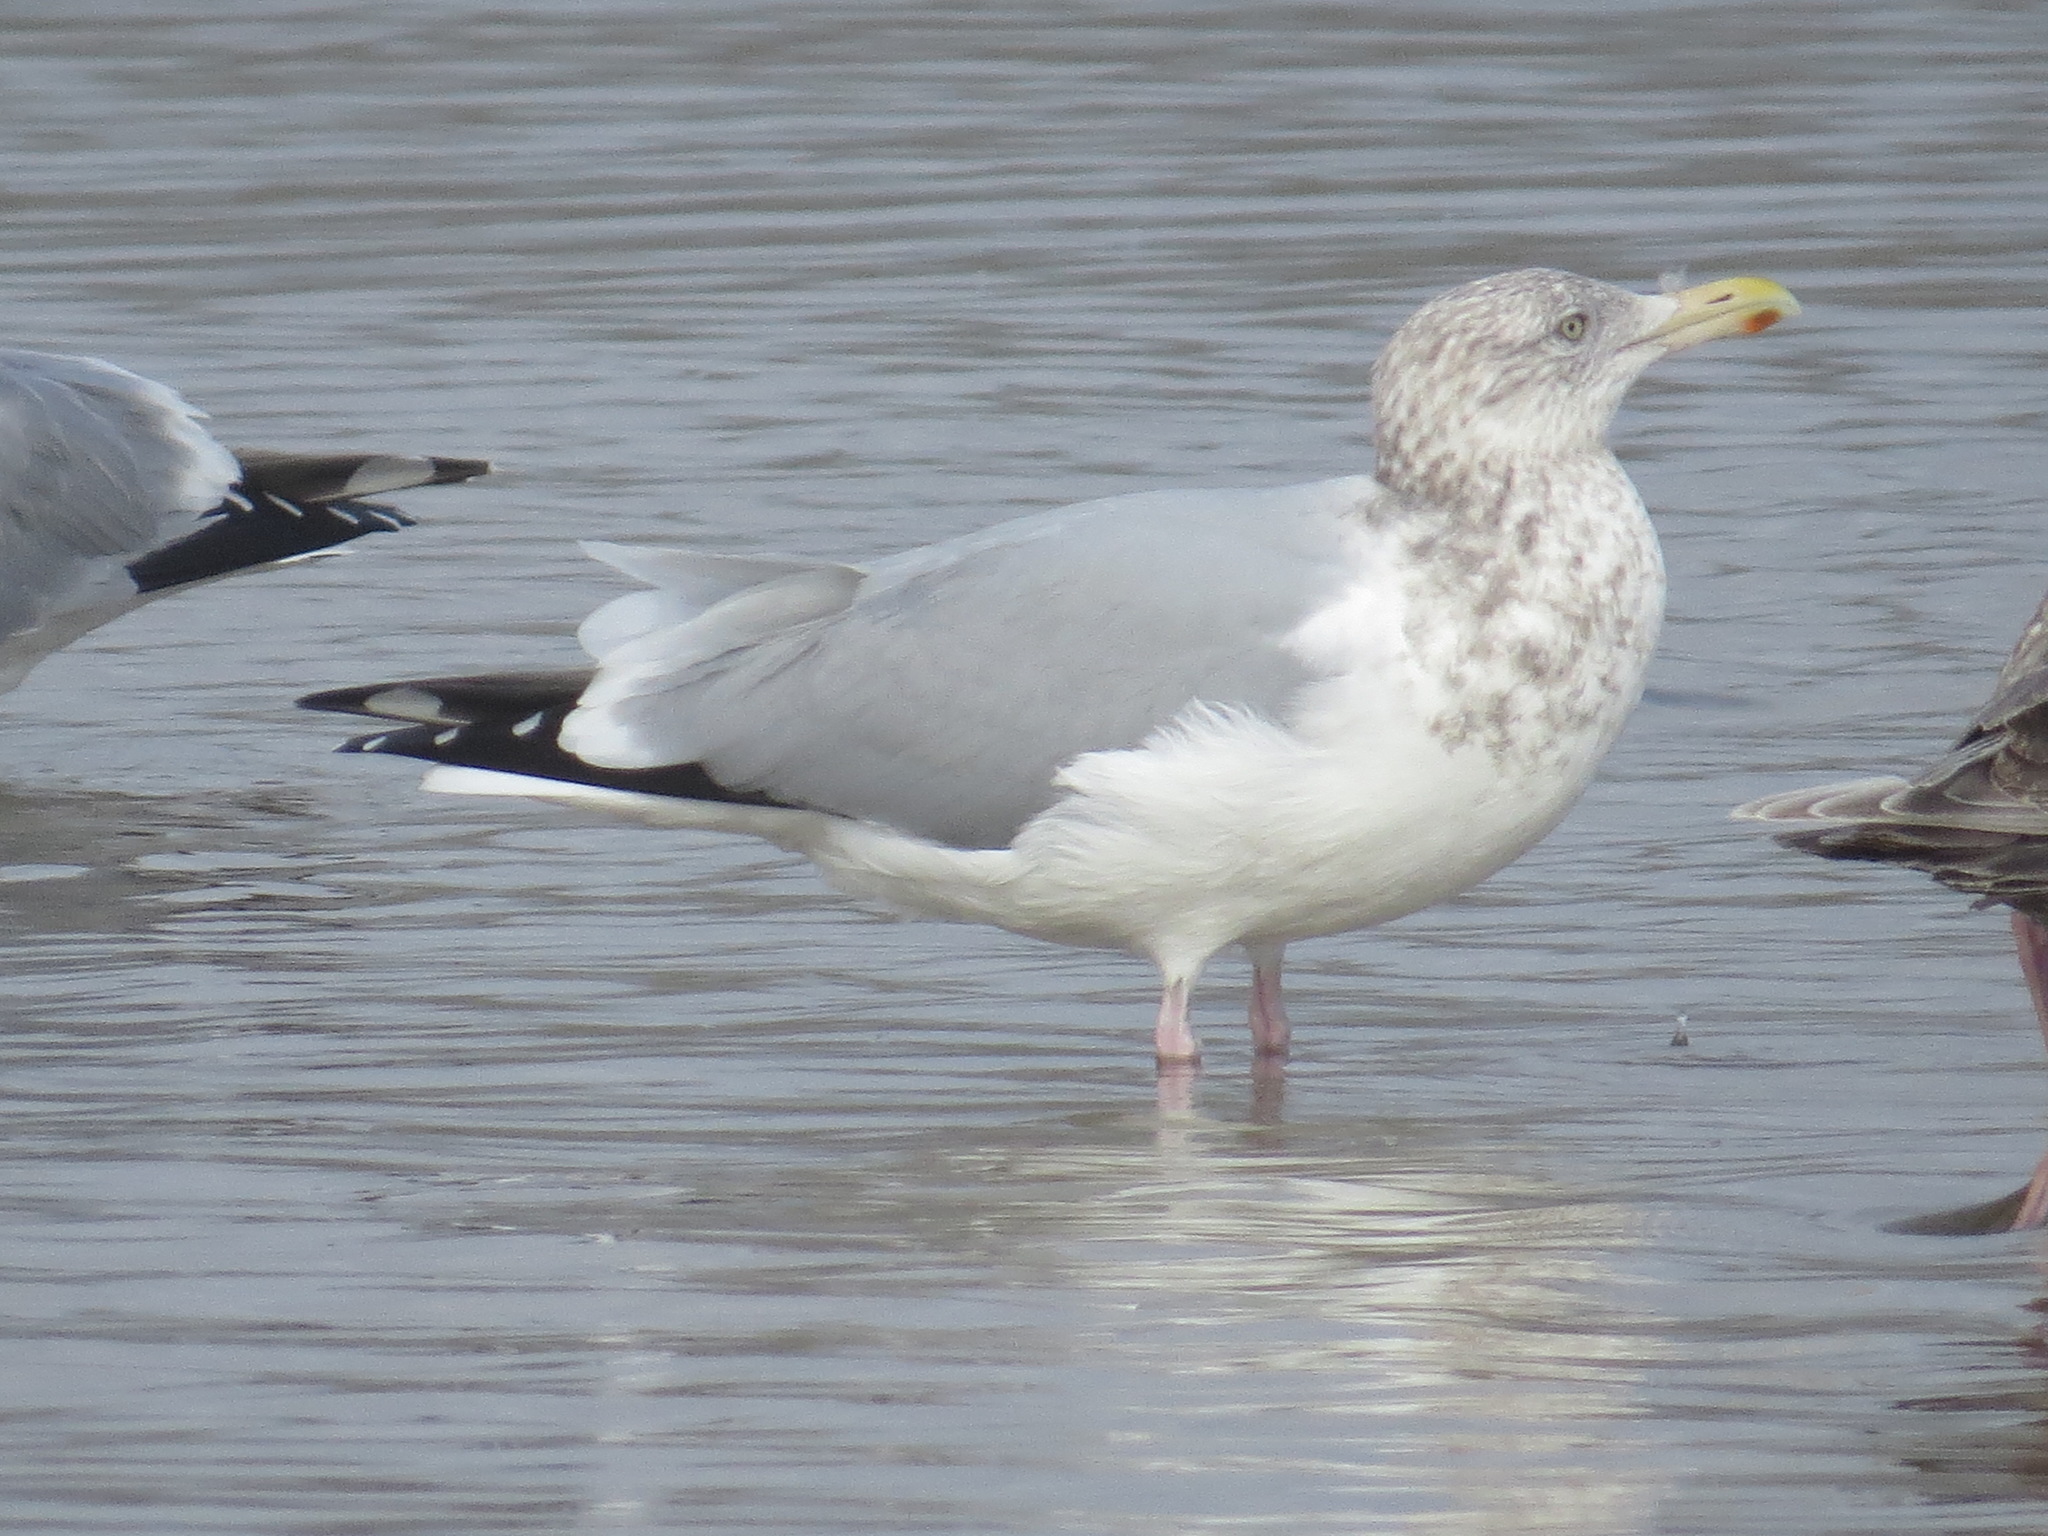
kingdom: Animalia
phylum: Chordata
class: Aves
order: Charadriiformes
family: Laridae
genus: Larus
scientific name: Larus argentatus
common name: Herring gull
